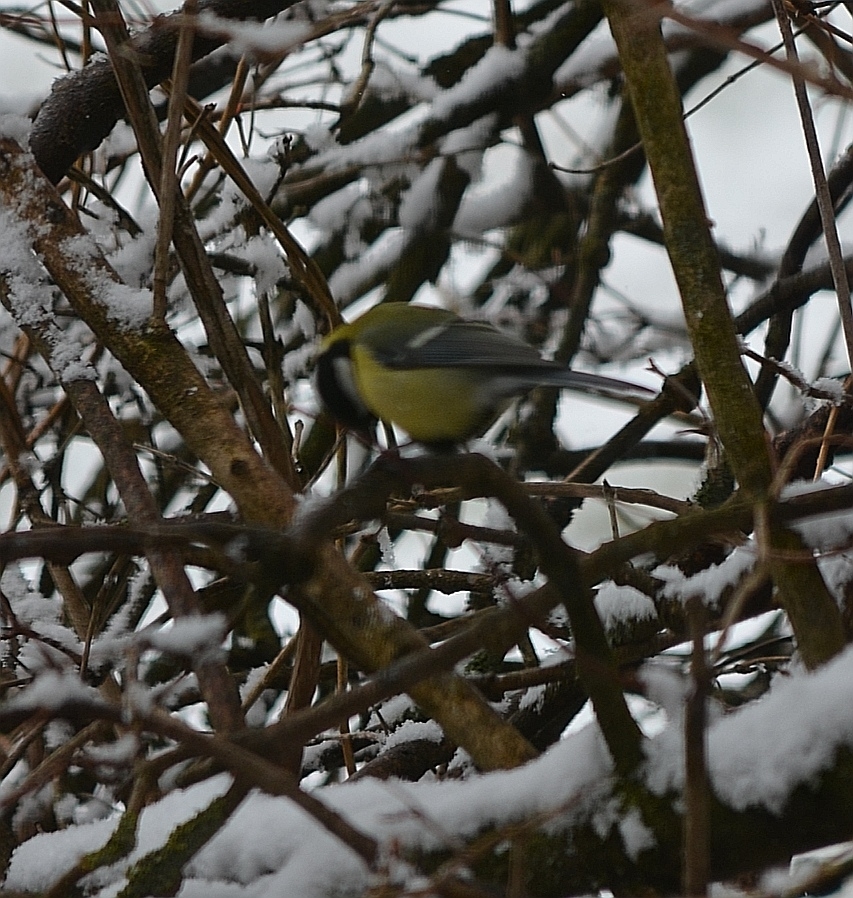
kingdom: Animalia
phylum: Chordata
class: Aves
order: Passeriformes
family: Paridae
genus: Parus
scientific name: Parus major
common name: Great tit
